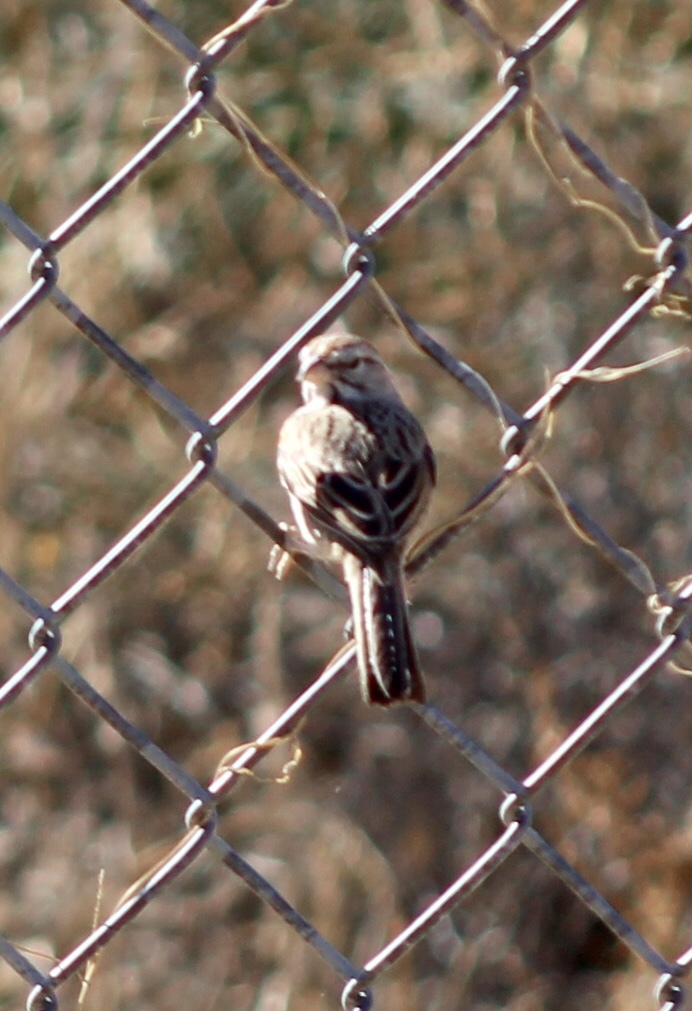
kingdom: Animalia
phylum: Chordata
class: Aves
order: Passeriformes
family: Passerellidae
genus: Peucaea
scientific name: Peucaea carpalis
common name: Rufous-winged sparrow
